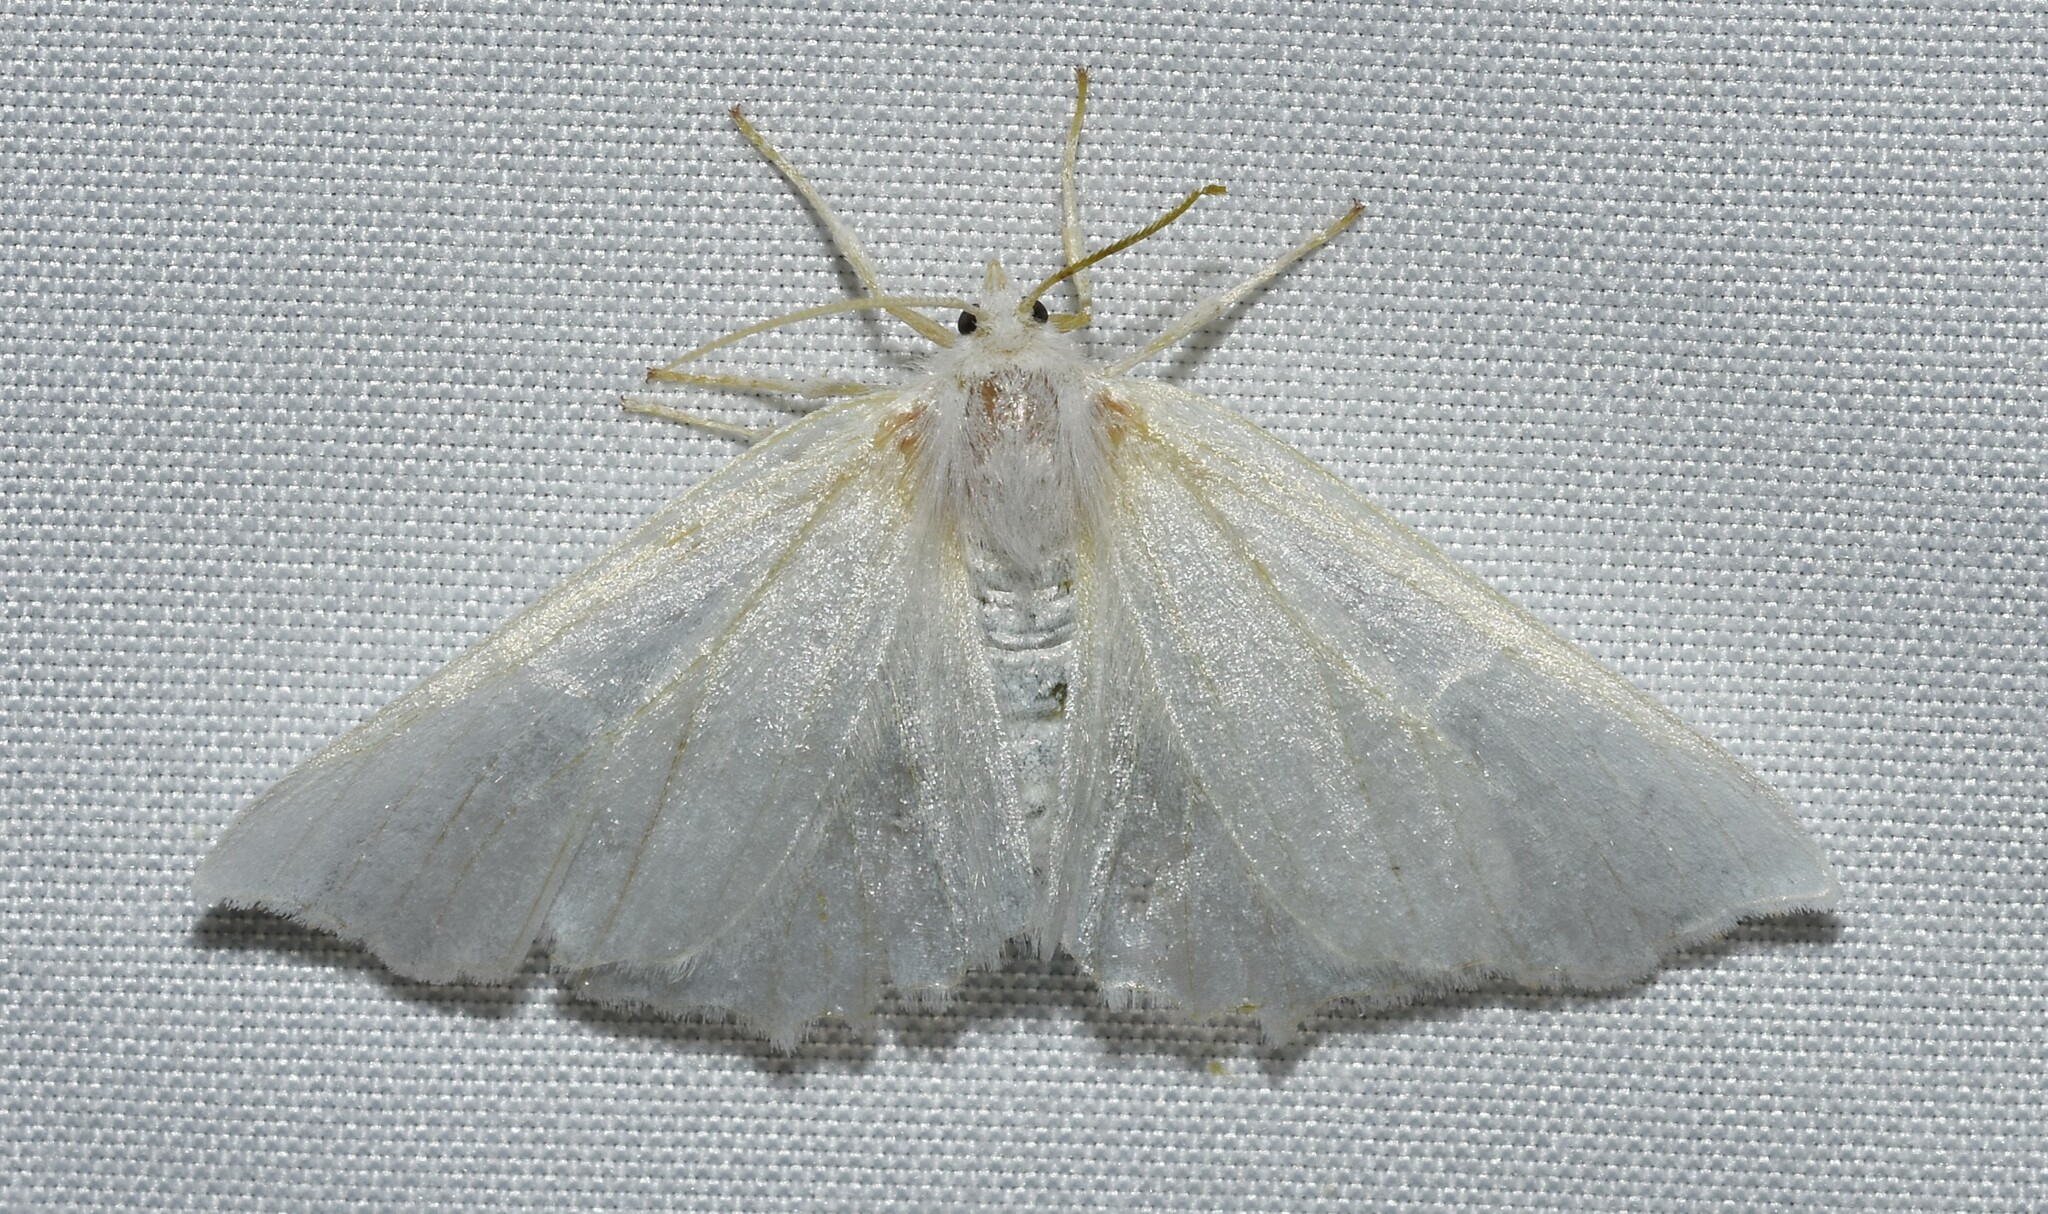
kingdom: Animalia
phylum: Arthropoda
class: Insecta
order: Lepidoptera
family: Geometridae
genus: Ennomos
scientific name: Ennomos subsignaria
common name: Elm spanworm
